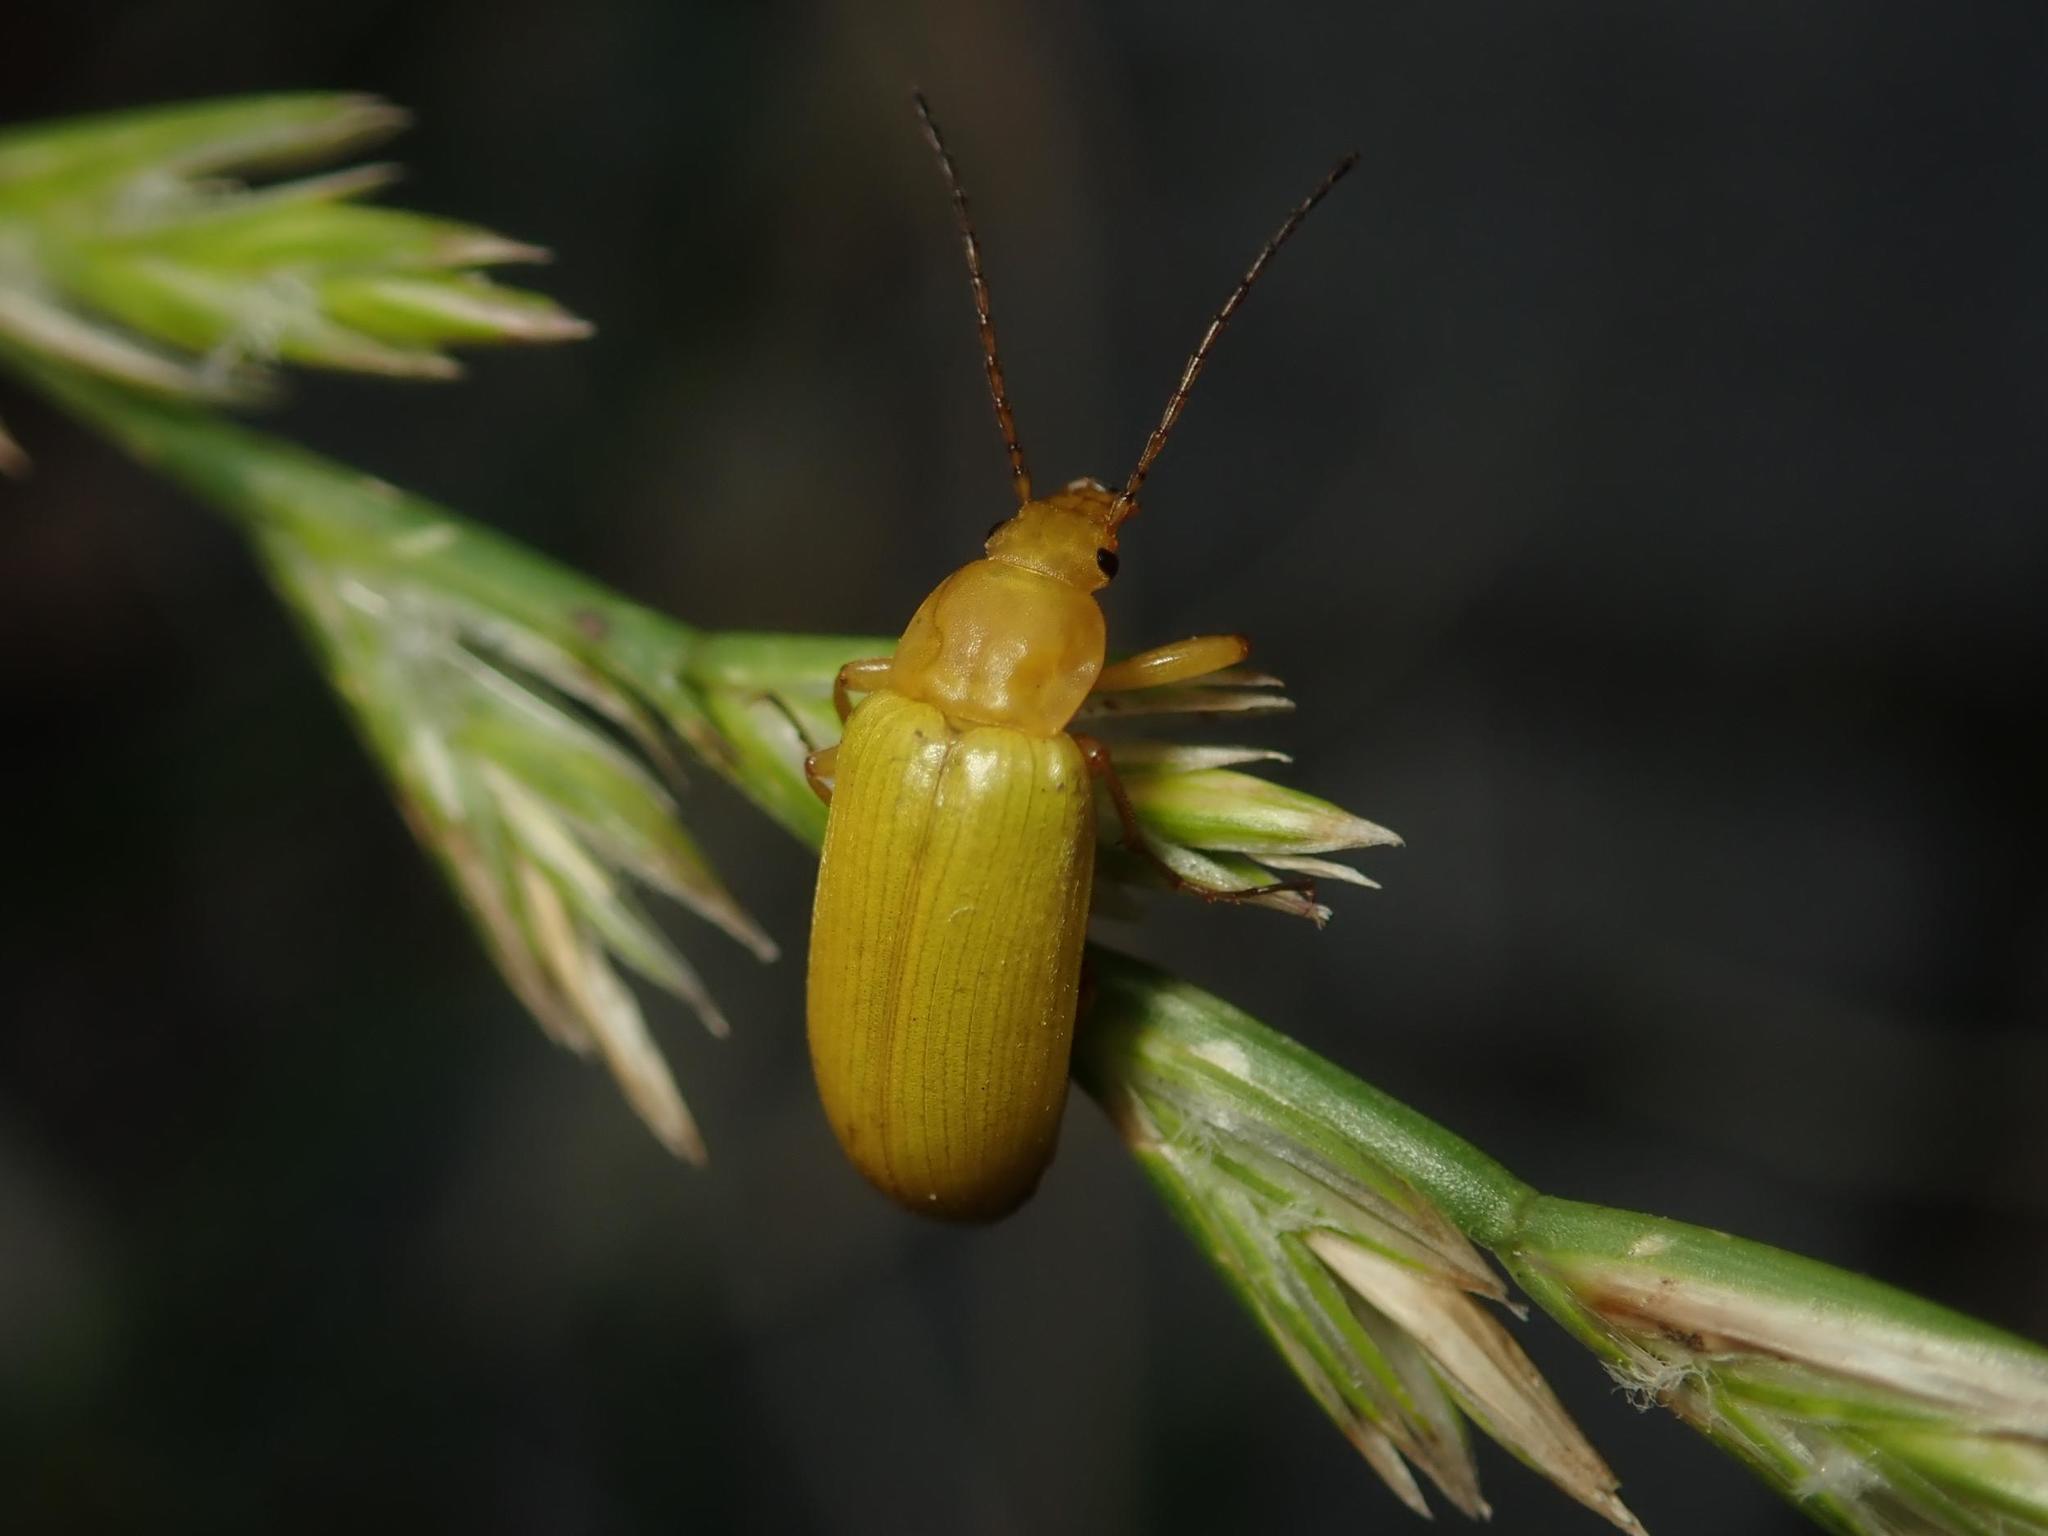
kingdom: Animalia
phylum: Arthropoda
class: Insecta
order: Coleoptera
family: Tenebrionidae
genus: Cteniopus
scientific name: Cteniopus sulphureus
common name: Sulphur beetle
